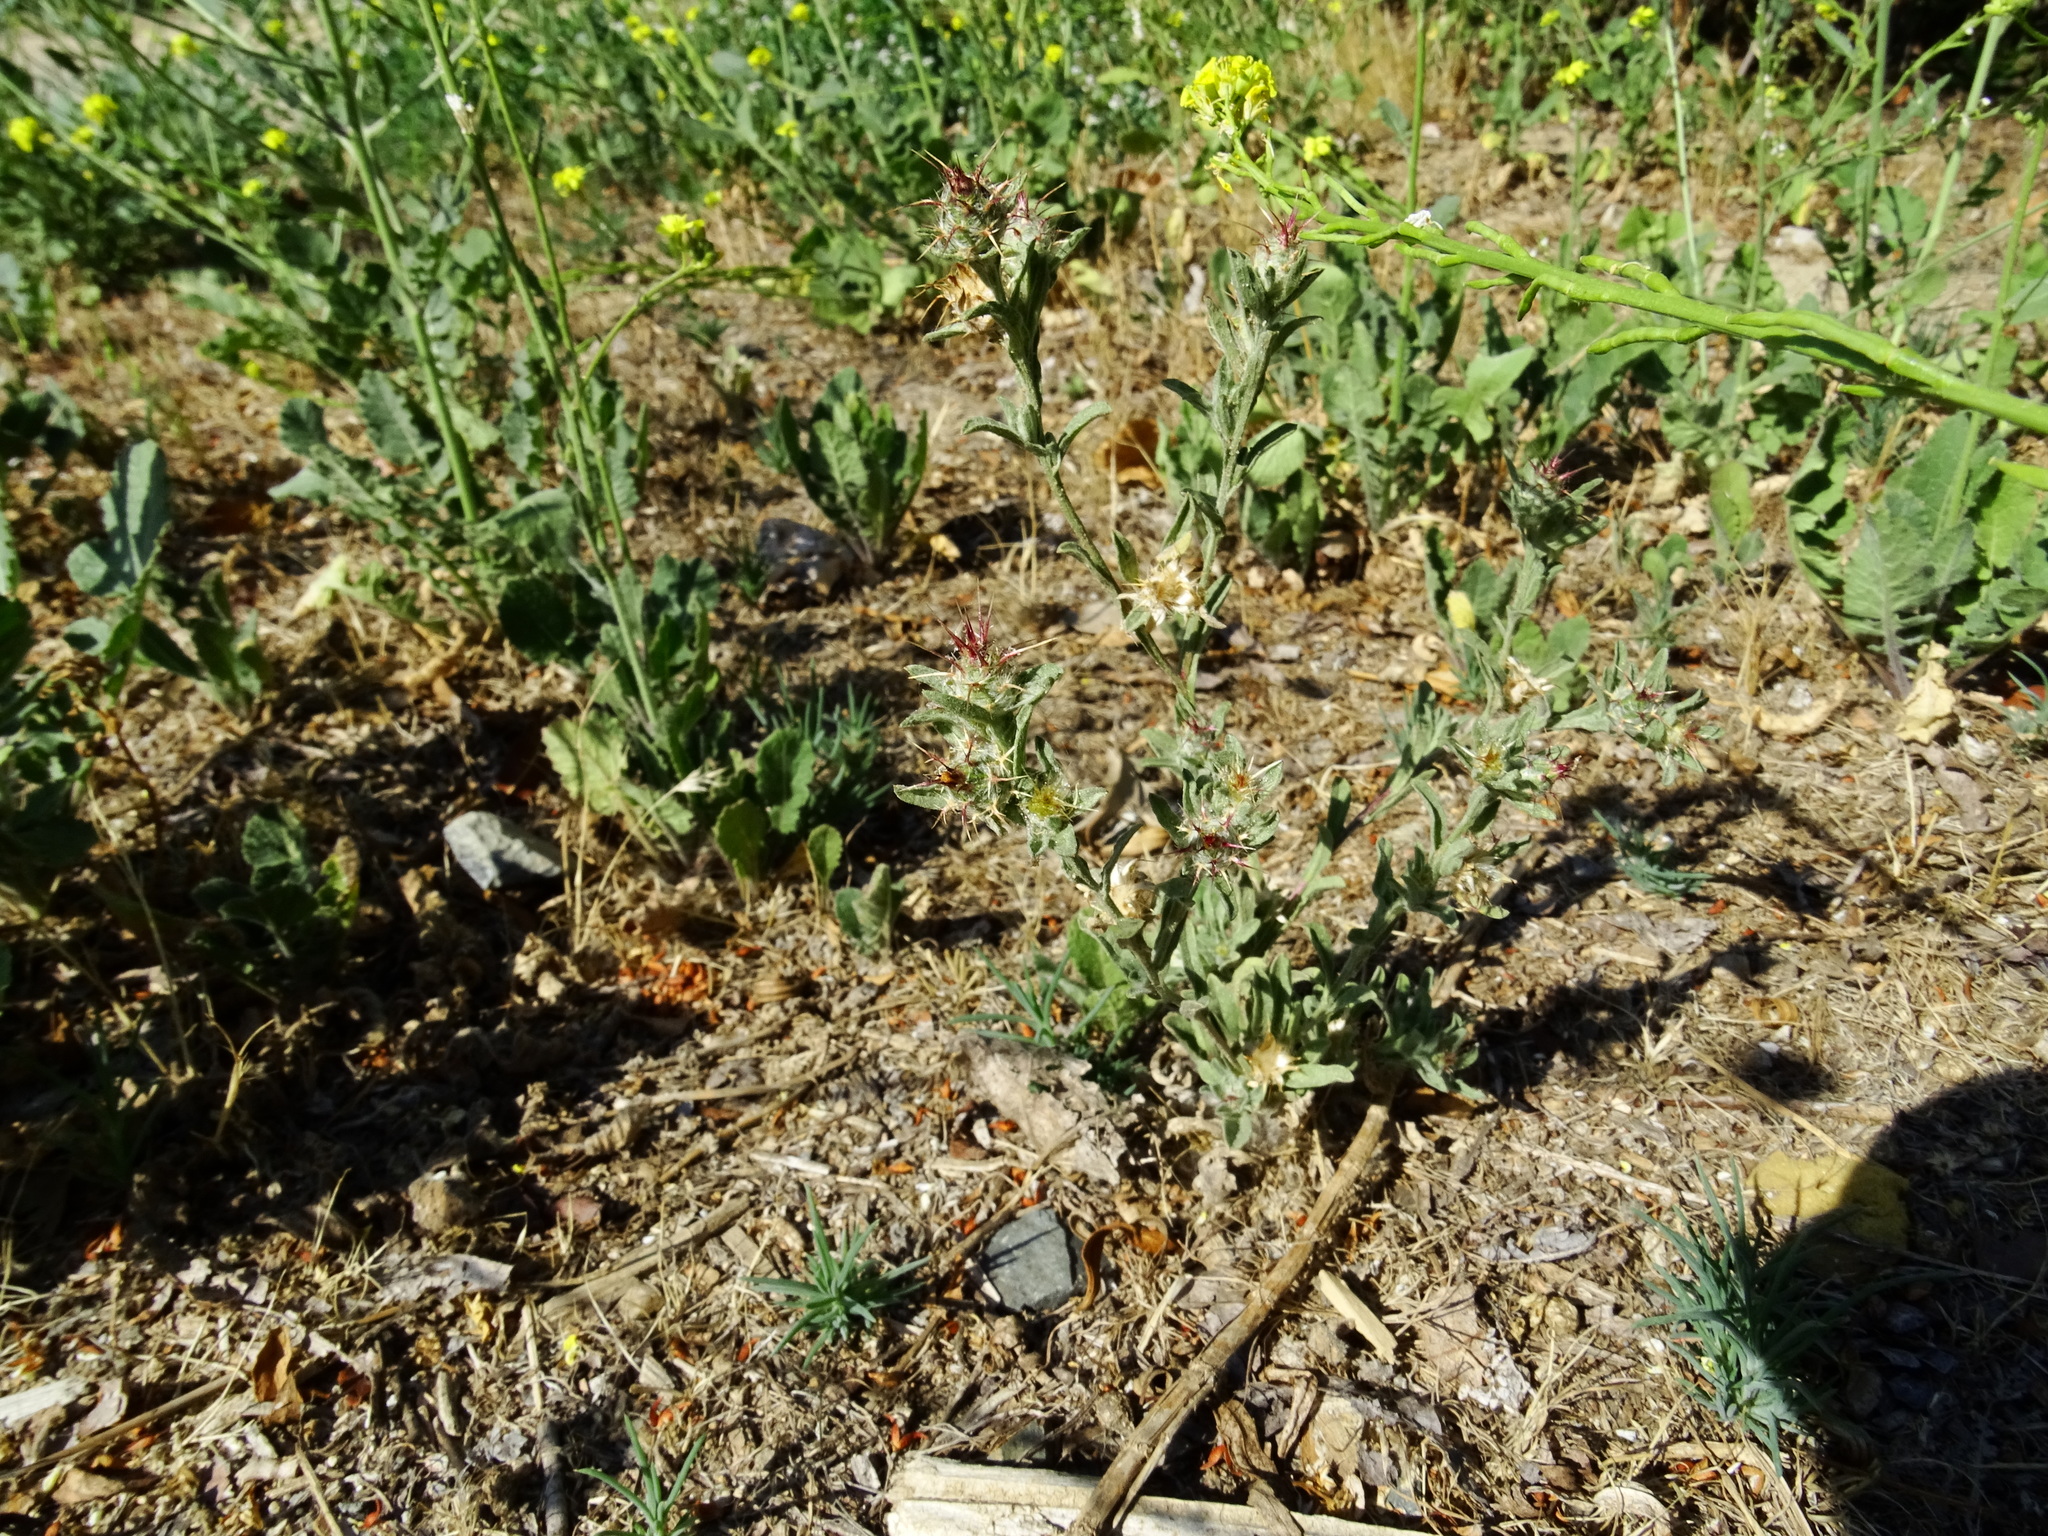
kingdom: Plantae
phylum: Tracheophyta
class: Magnoliopsida
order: Asterales
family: Asteraceae
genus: Centaurea
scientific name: Centaurea melitensis
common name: Maltese star-thistle
